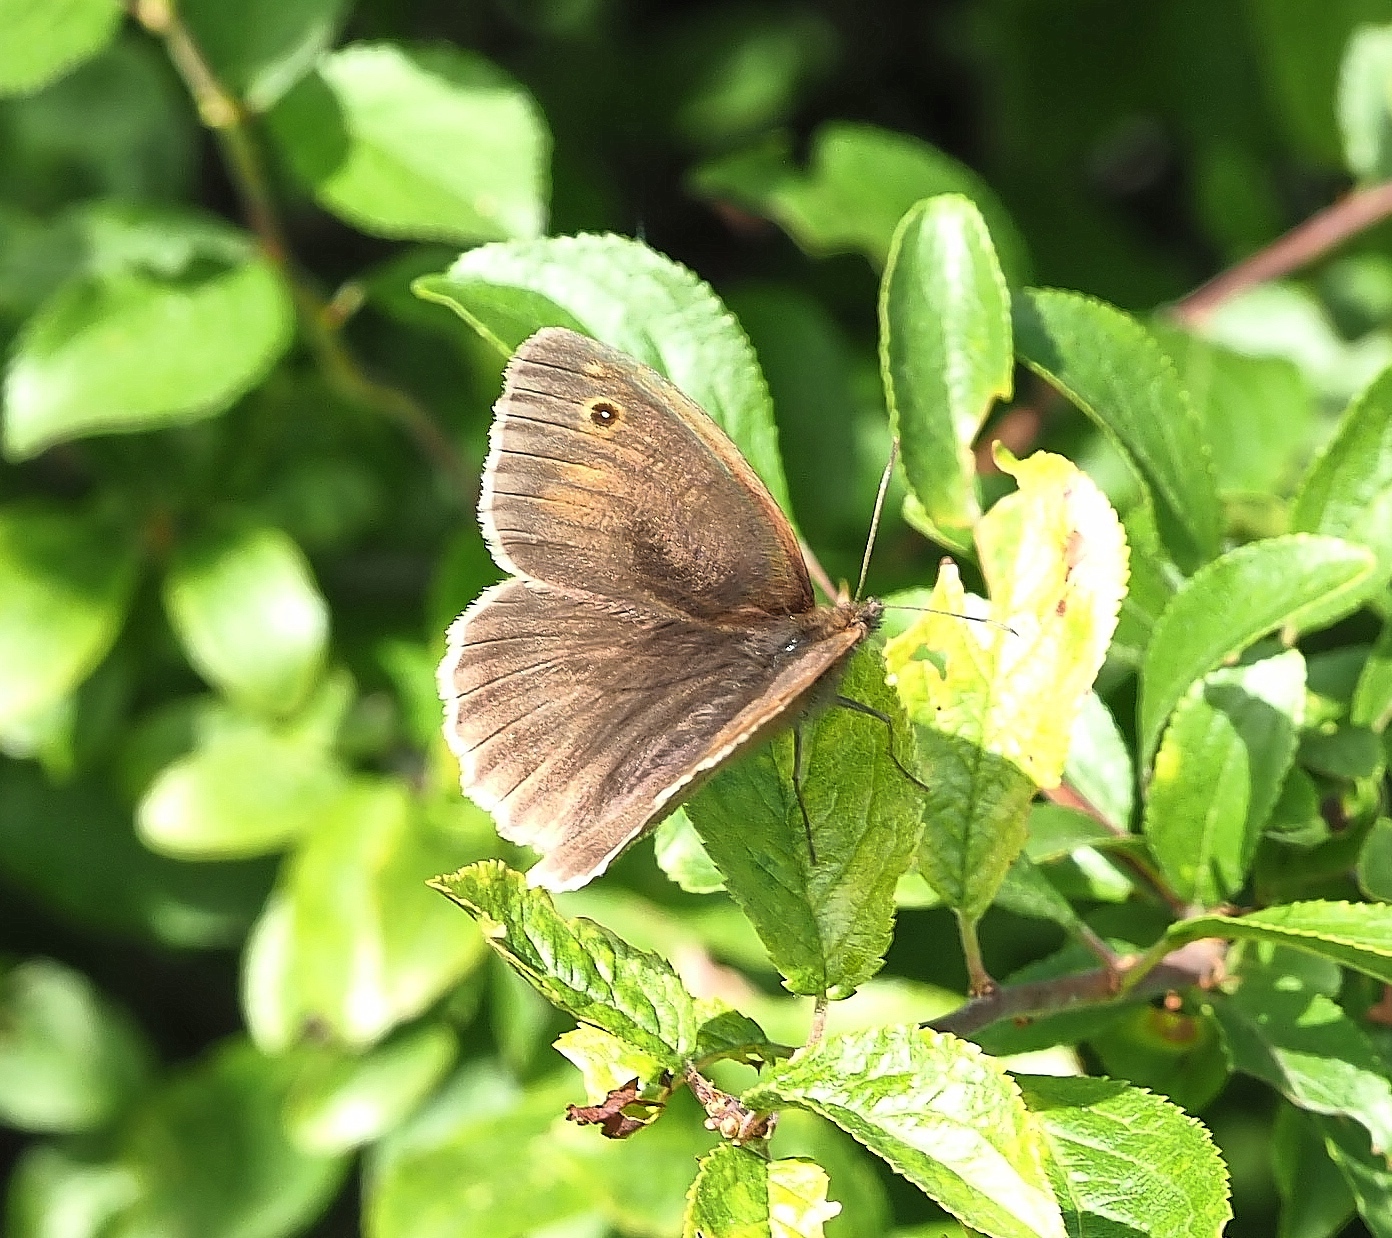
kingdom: Animalia
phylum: Arthropoda
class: Insecta
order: Lepidoptera
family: Nymphalidae
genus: Maniola
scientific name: Maniola jurtina
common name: Meadow brown
